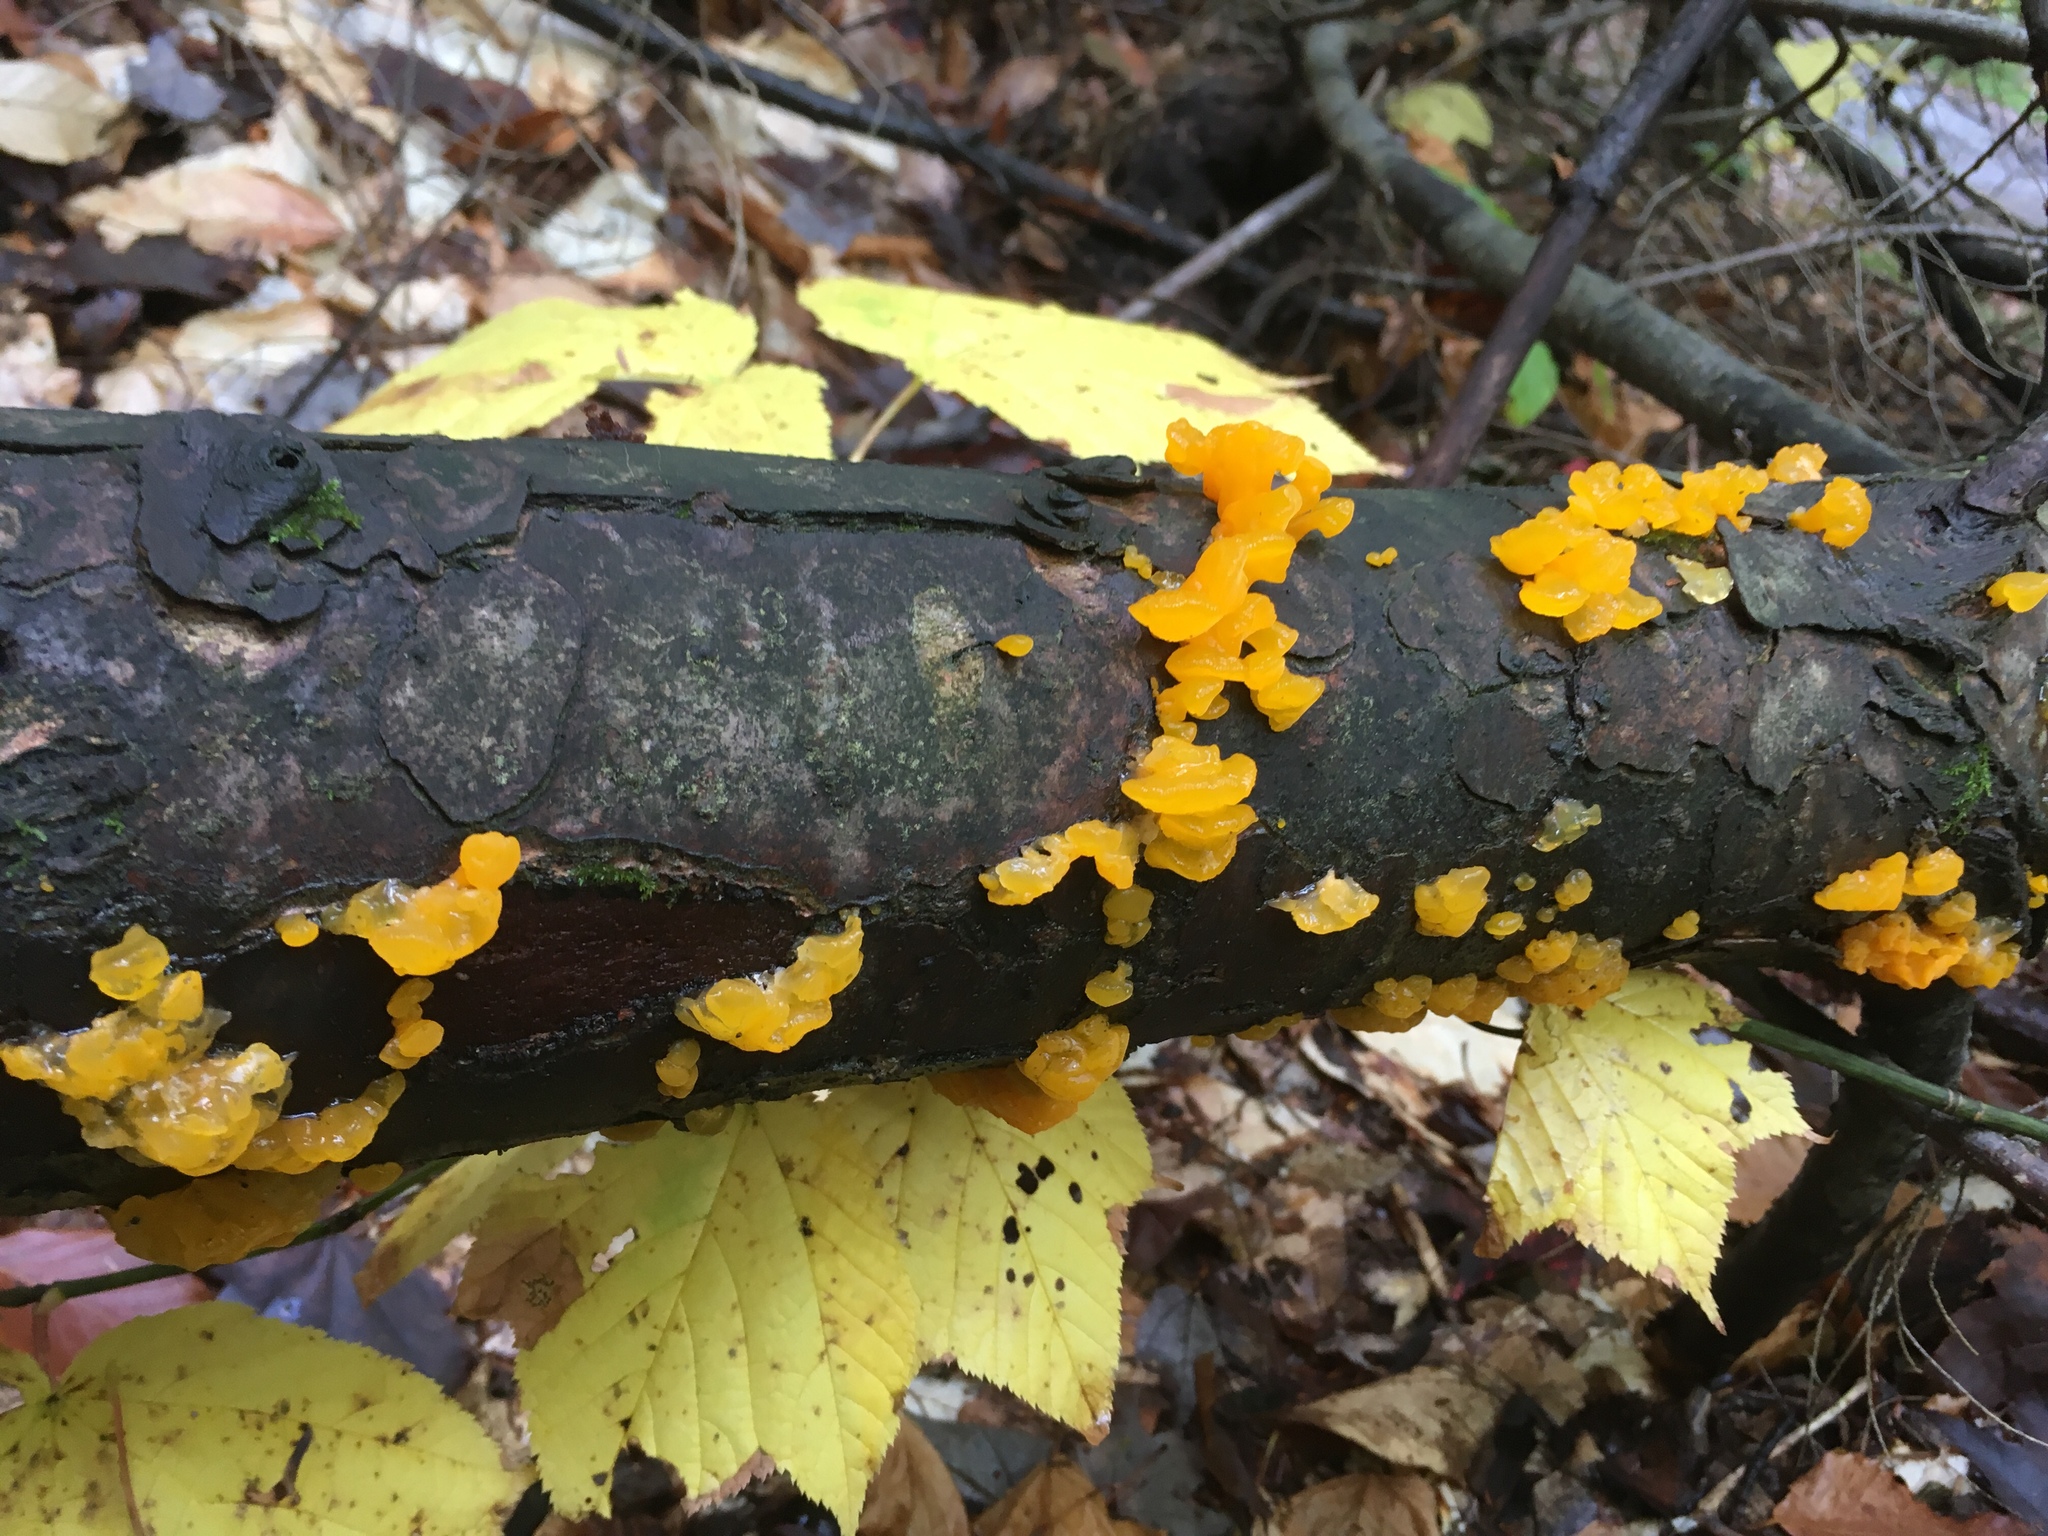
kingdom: Fungi
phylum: Basidiomycota
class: Dacrymycetes
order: Dacrymycetales
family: Dacrymycetaceae
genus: Dacrymyces
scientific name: Dacrymyces chrysospermus
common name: Orange jelly spot
